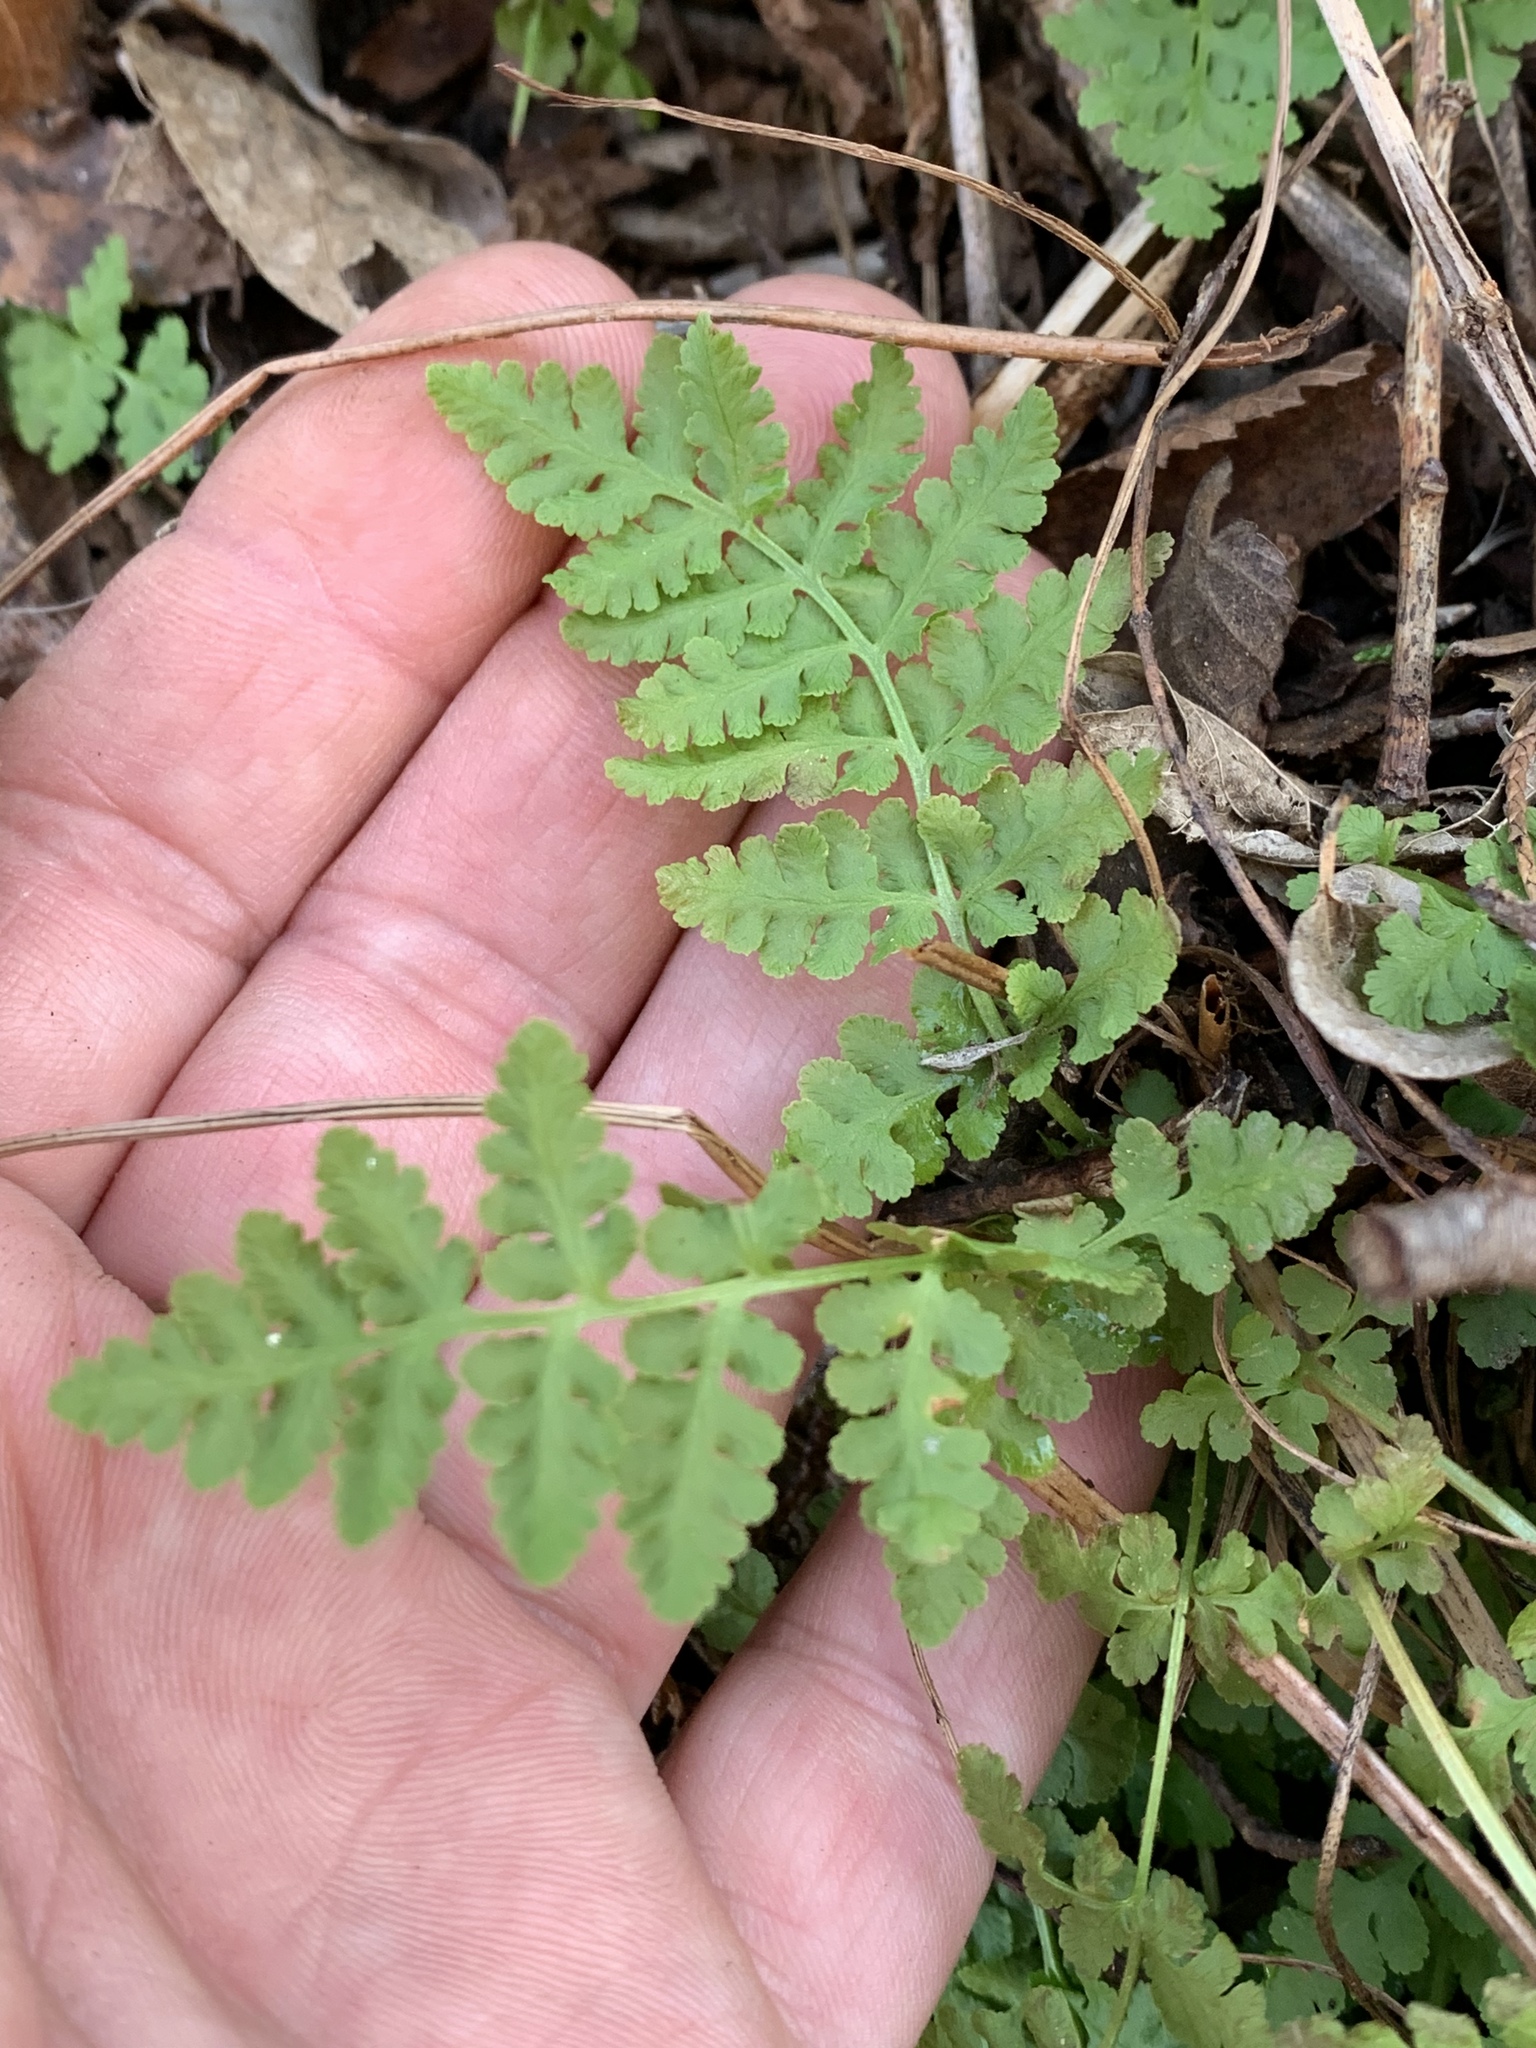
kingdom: Plantae
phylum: Tracheophyta
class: Polypodiopsida
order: Polypodiales
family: Woodsiaceae
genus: Physematium
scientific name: Physematium obtusum
